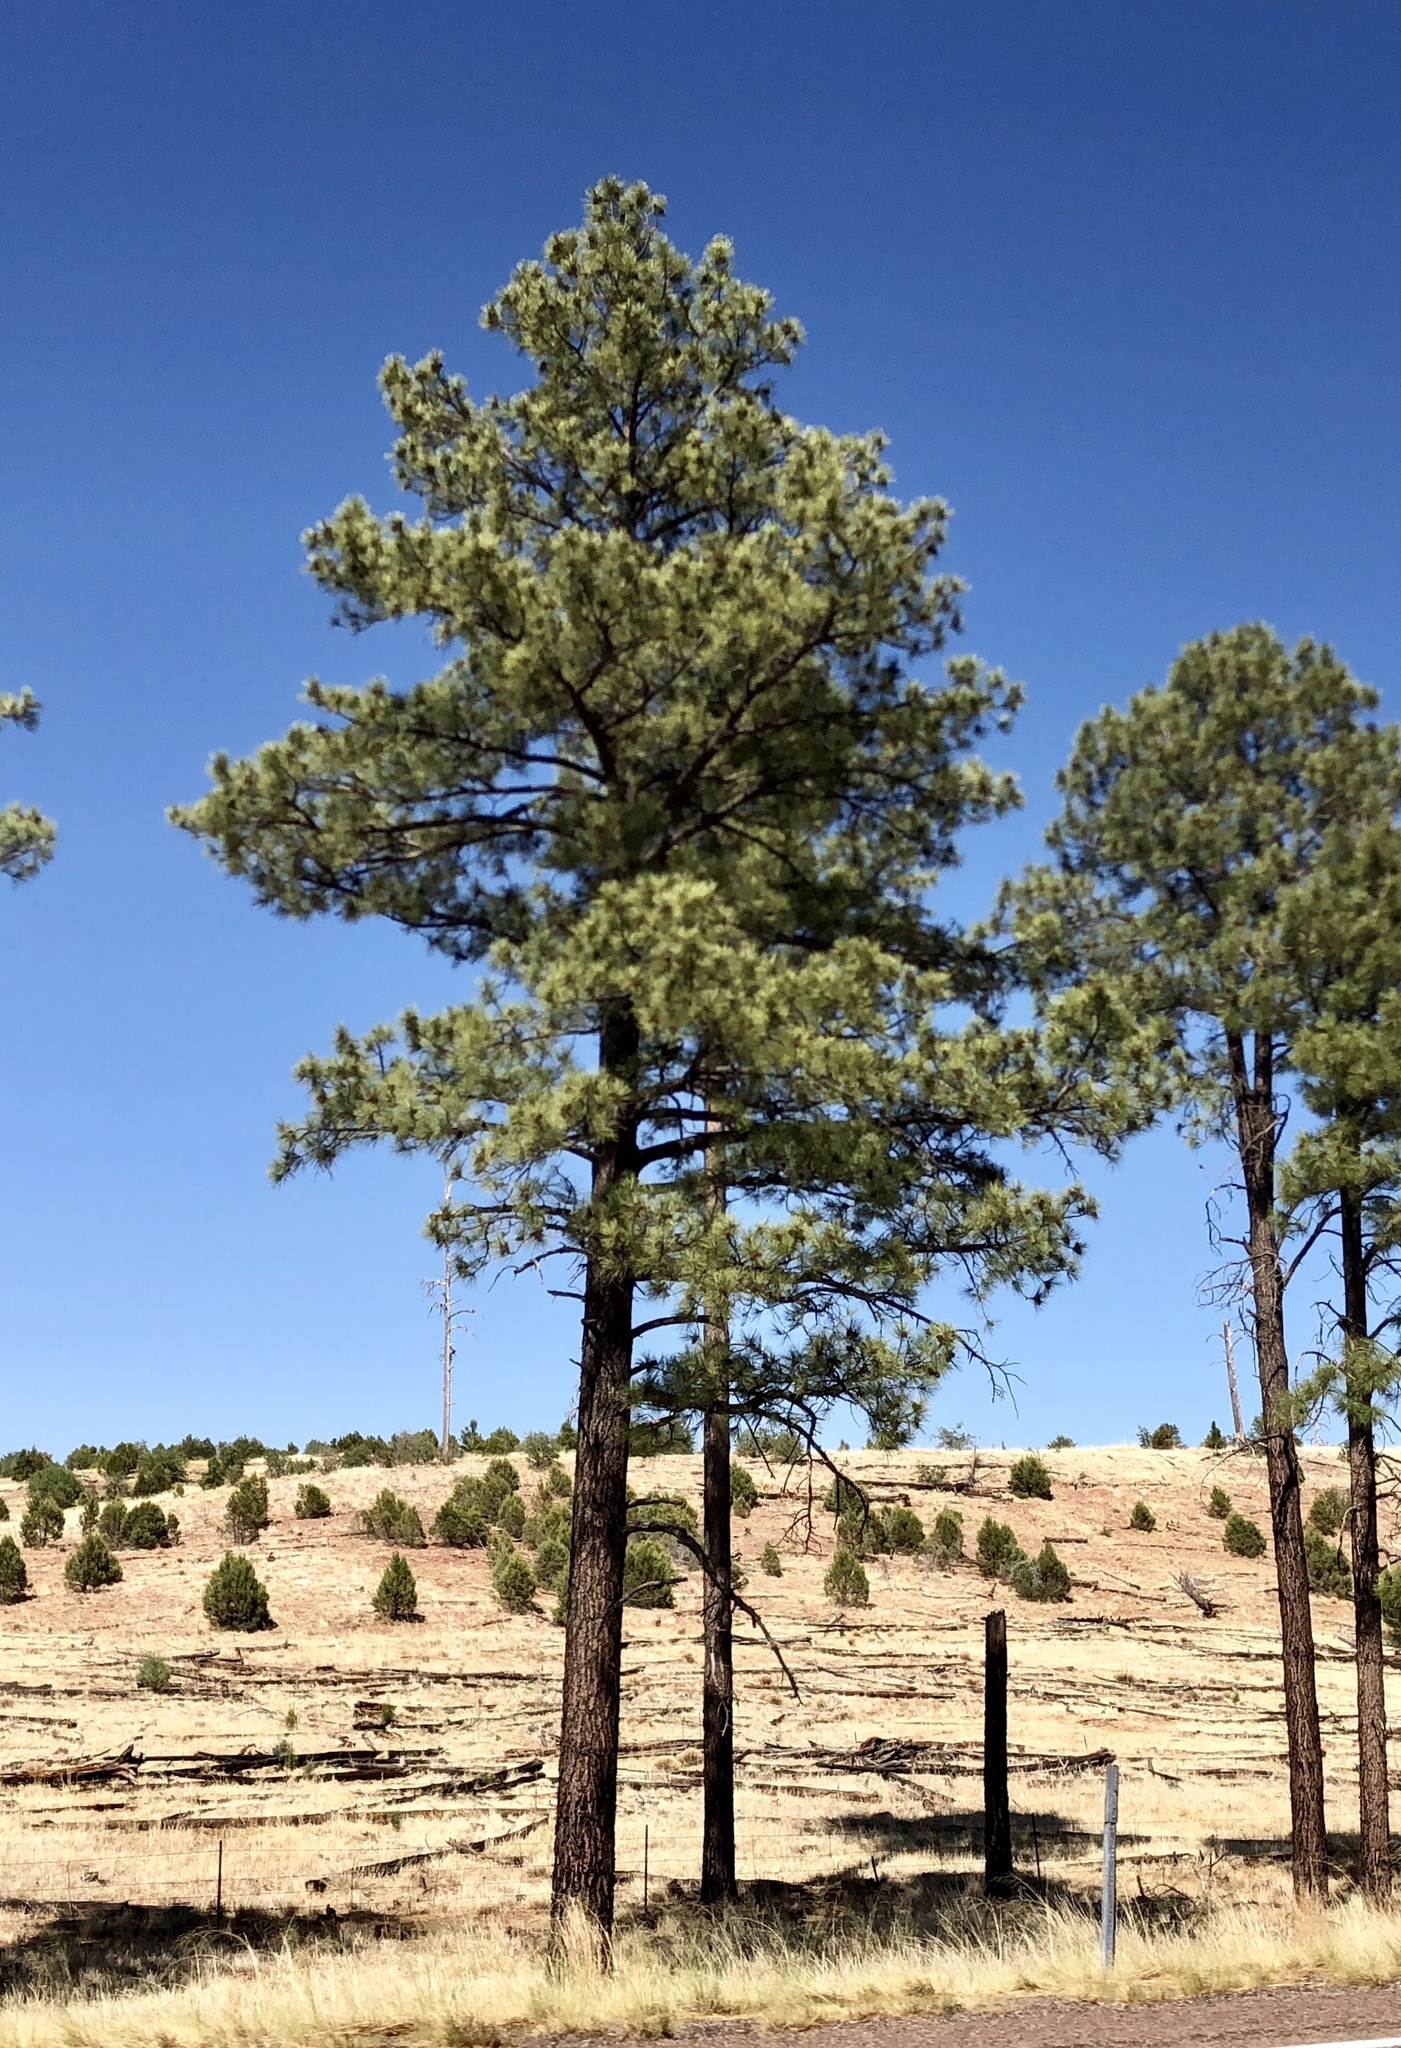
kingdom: Plantae
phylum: Tracheophyta
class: Pinopsida
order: Pinales
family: Pinaceae
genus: Pinus
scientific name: Pinus ponderosa
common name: Western yellow-pine
